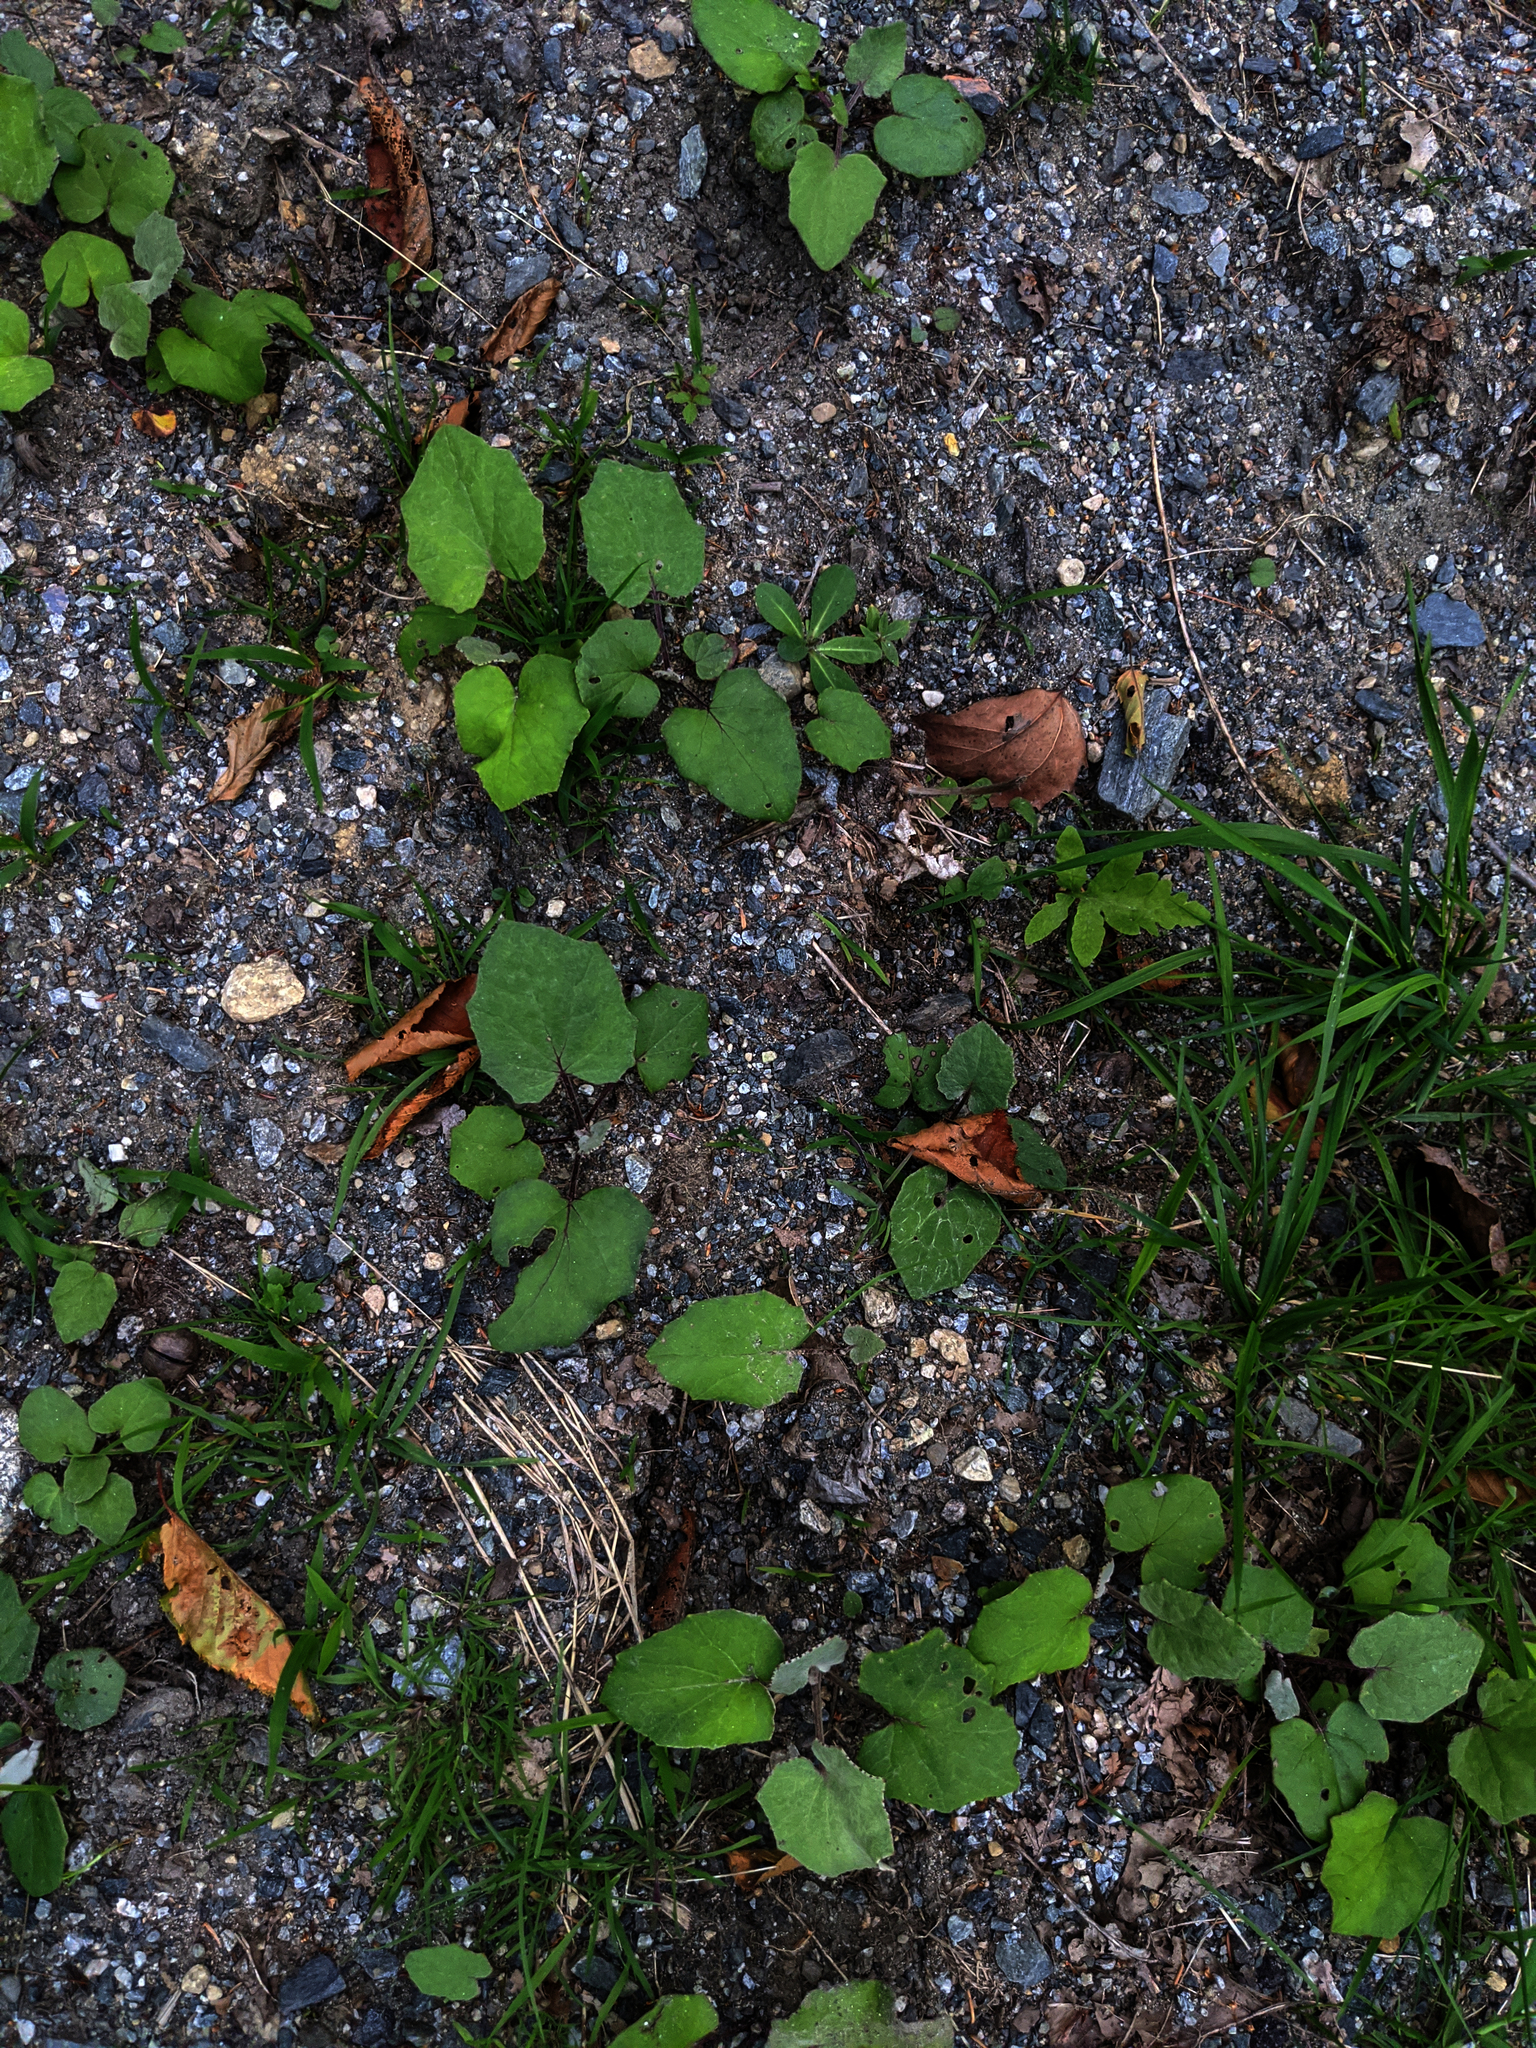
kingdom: Plantae
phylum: Tracheophyta
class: Magnoliopsida
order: Asterales
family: Asteraceae
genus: Tussilago
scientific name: Tussilago farfara
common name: Coltsfoot
